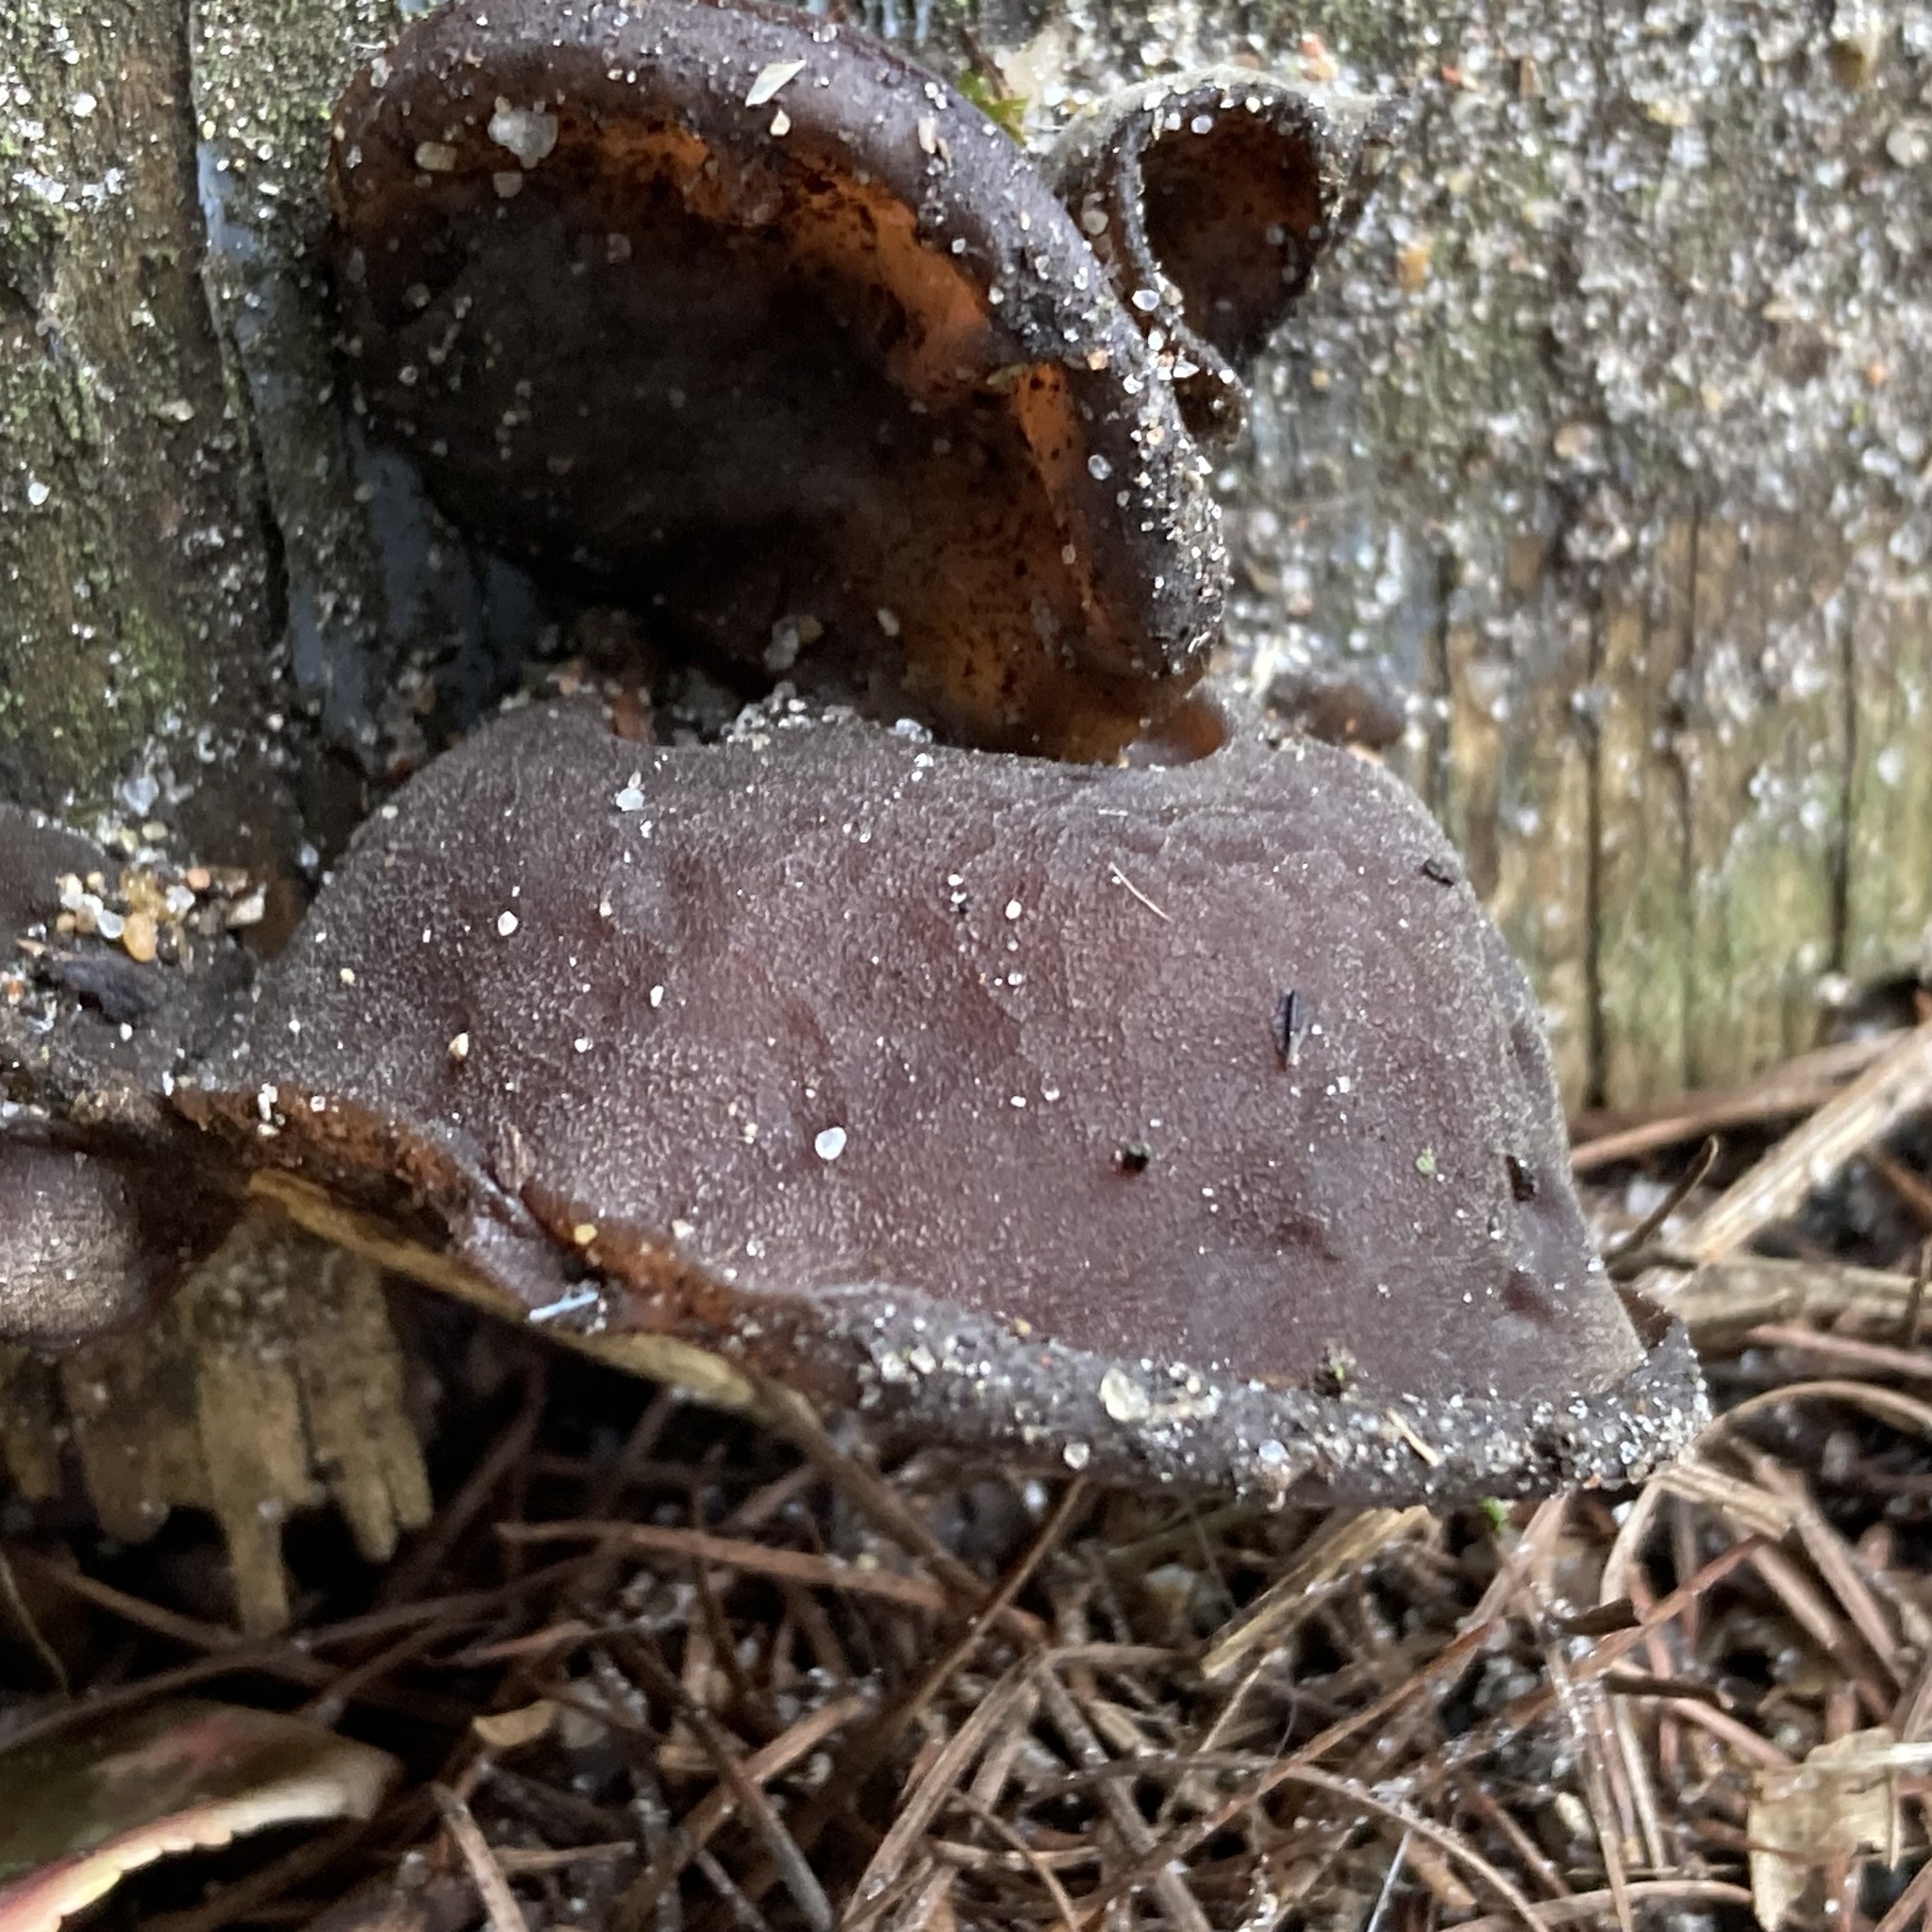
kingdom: Fungi
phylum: Basidiomycota
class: Agaricomycetes
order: Auriculariales
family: Auriculariaceae
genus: Auricularia
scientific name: Auricularia auricula-judae
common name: Jelly ear
